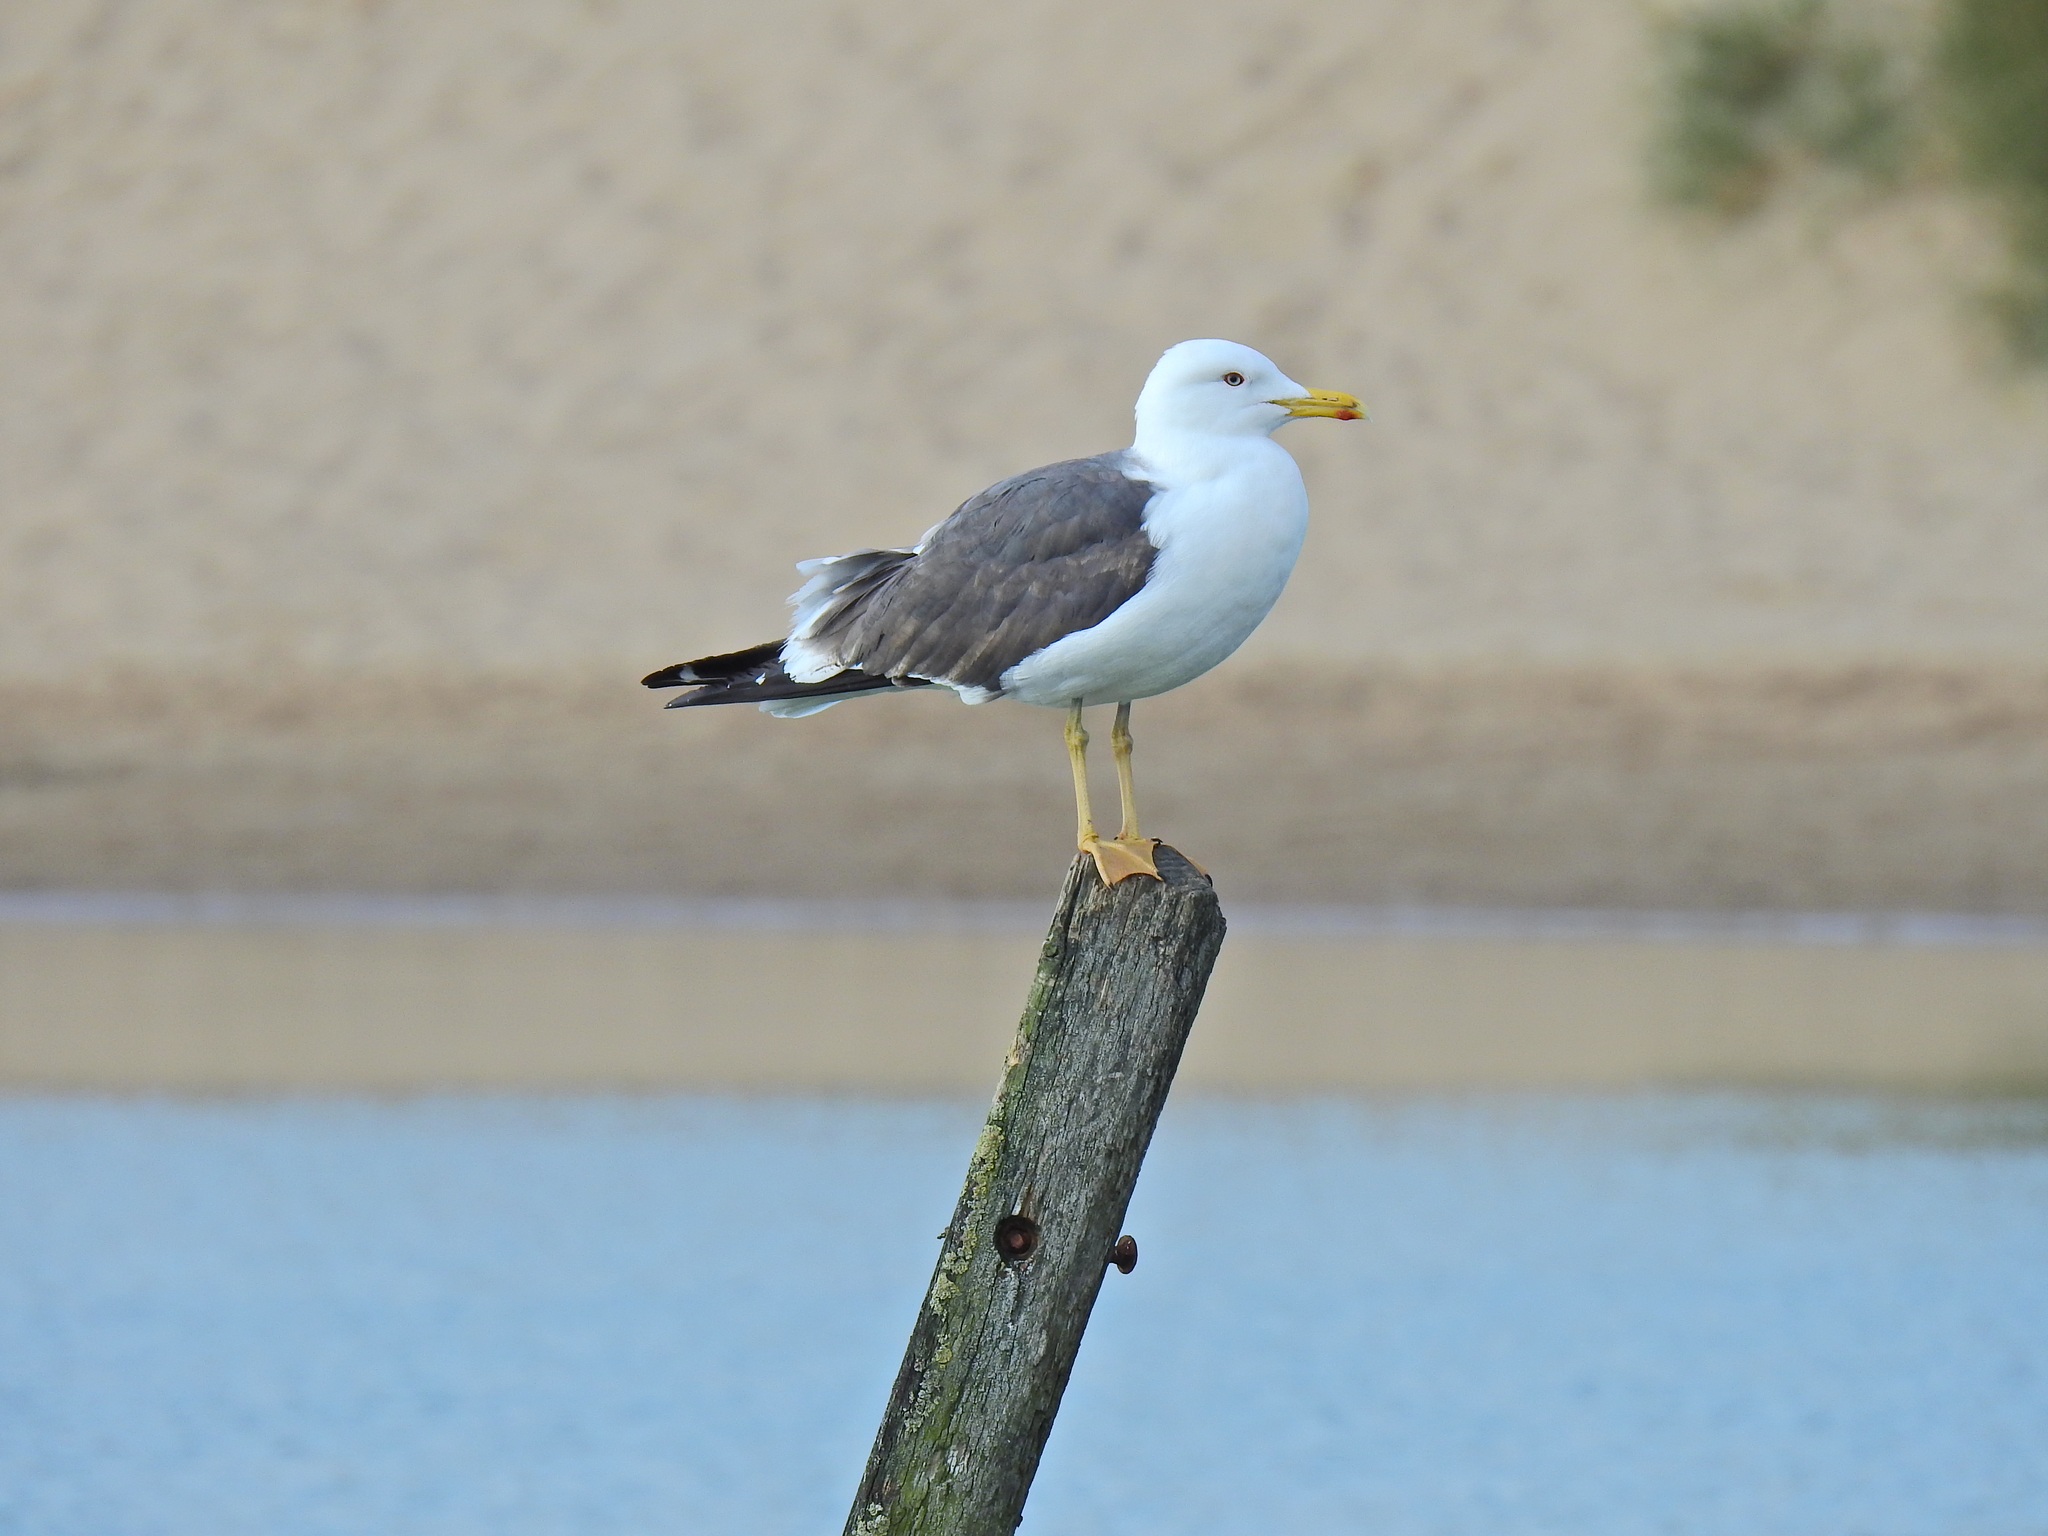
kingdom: Animalia
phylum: Chordata
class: Aves
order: Charadriiformes
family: Laridae
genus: Larus
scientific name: Larus fuscus
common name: Lesser black-backed gull
